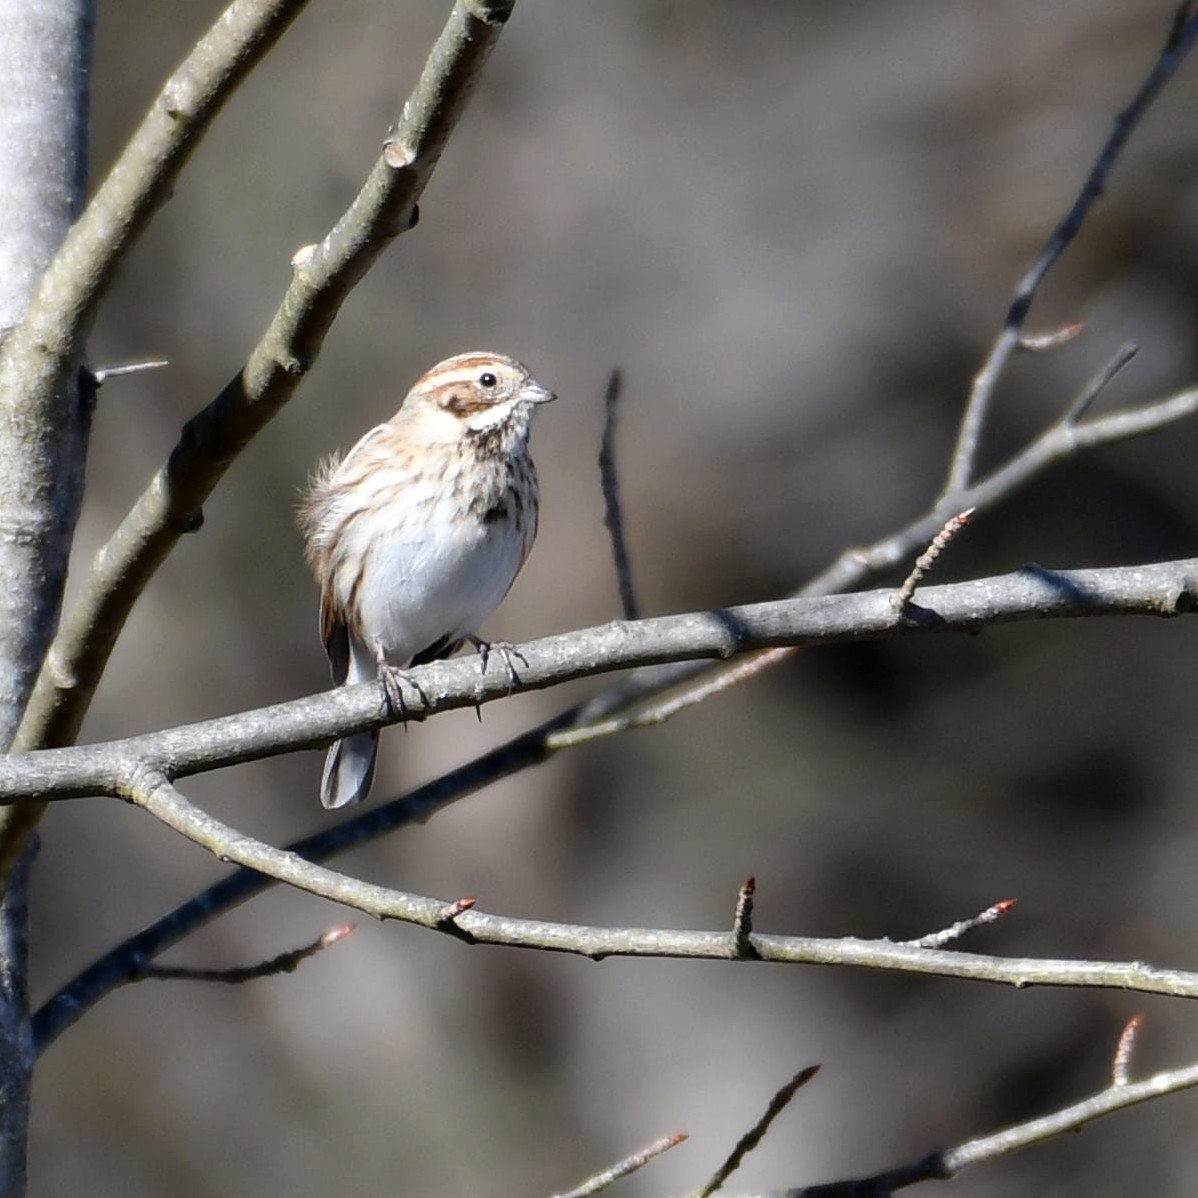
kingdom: Animalia
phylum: Chordata
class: Aves
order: Passeriformes
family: Emberizidae
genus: Emberiza
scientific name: Emberiza schoeniclus
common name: Reed bunting
